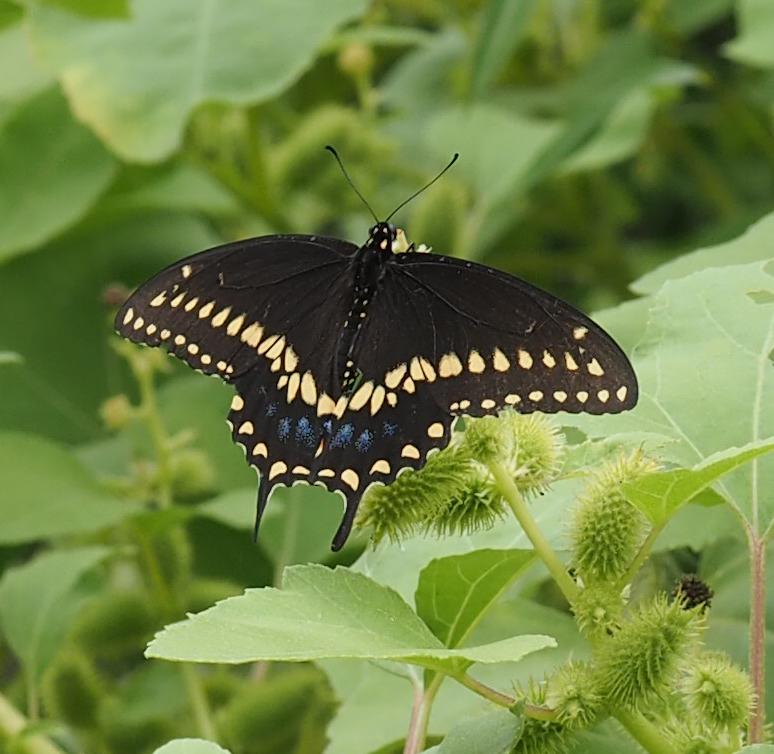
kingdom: Animalia
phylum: Arthropoda
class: Insecta
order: Lepidoptera
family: Papilionidae
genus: Papilio
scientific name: Papilio polyxenes
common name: Black swallowtail
